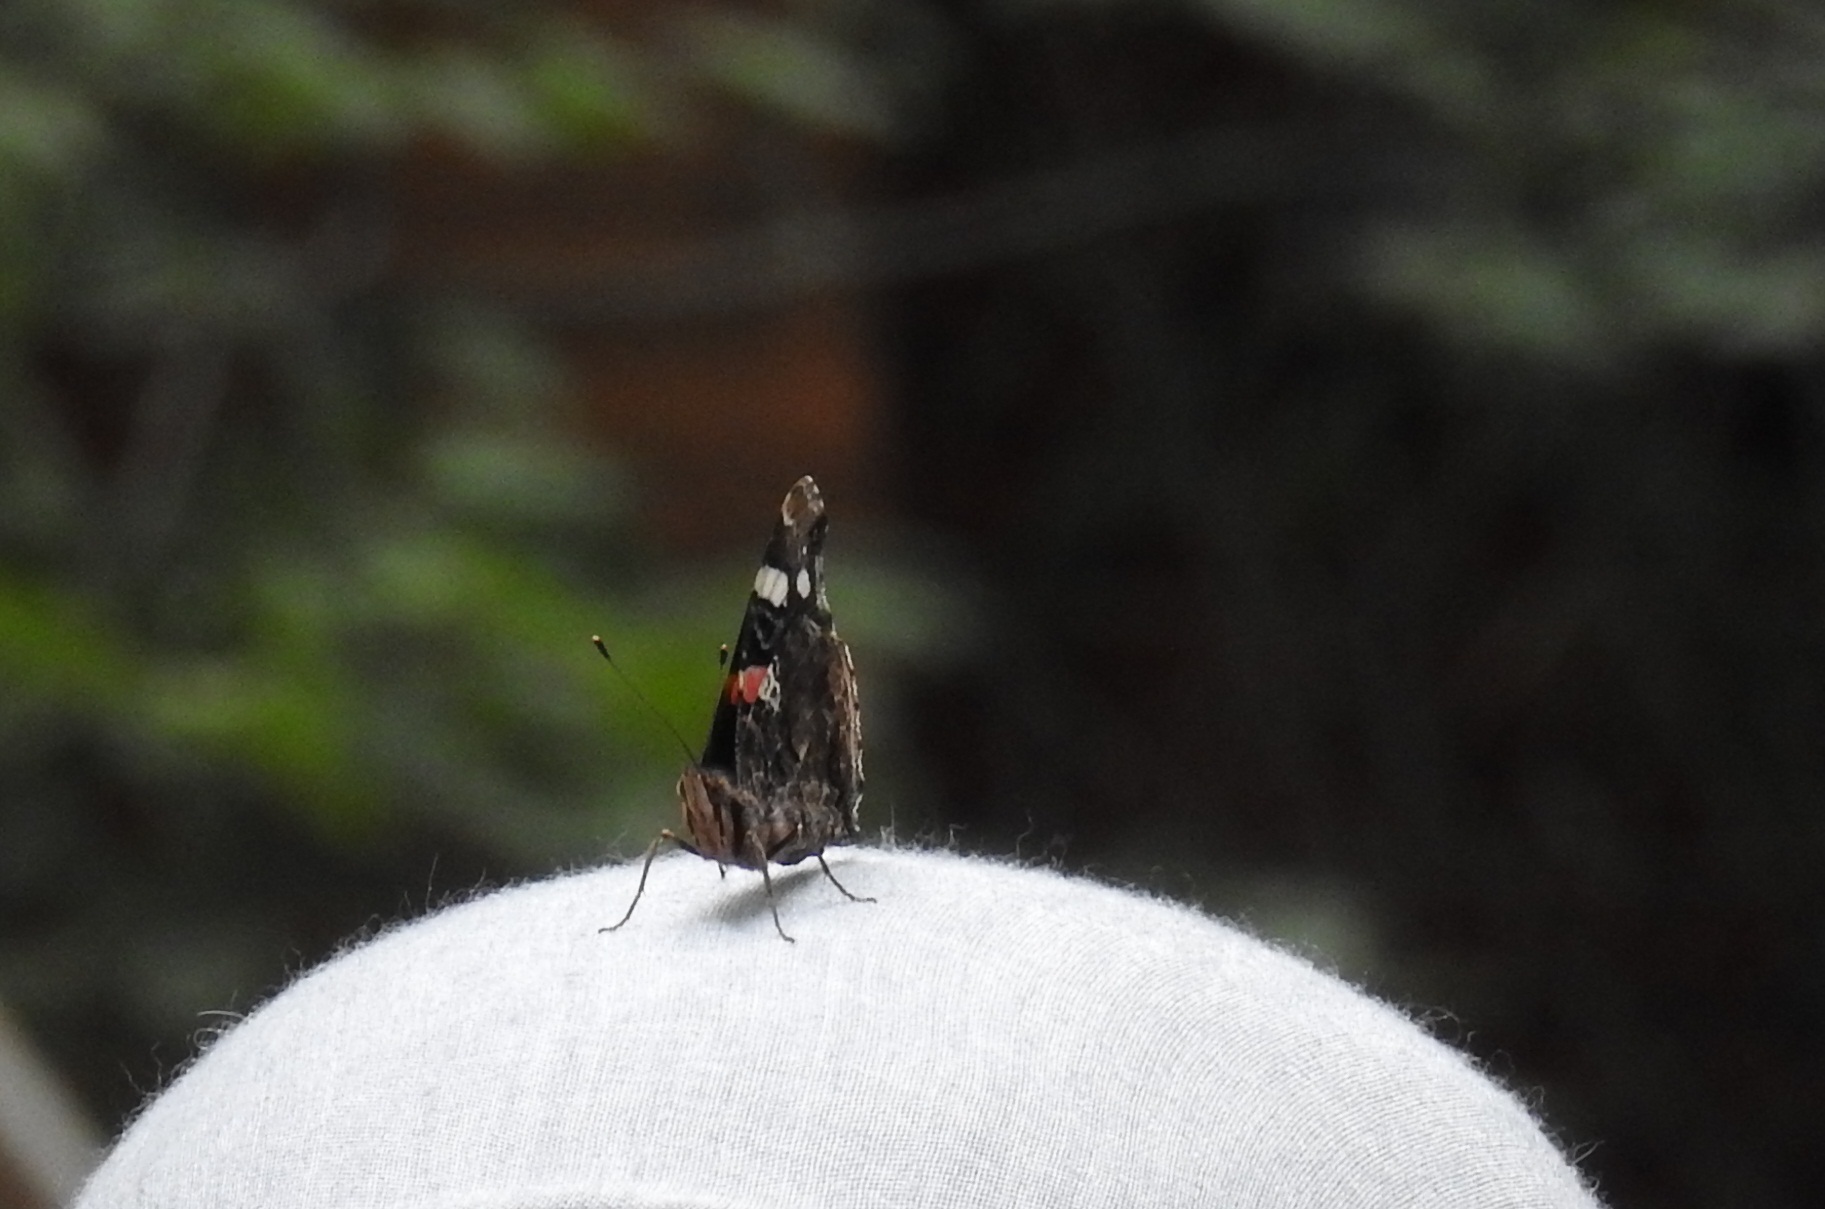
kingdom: Animalia
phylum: Arthropoda
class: Insecta
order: Lepidoptera
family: Nymphalidae
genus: Vanessa
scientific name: Vanessa atalanta
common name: Red admiral
